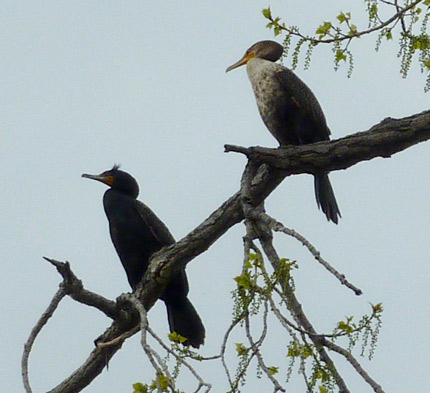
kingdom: Animalia
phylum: Chordata
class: Aves
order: Suliformes
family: Phalacrocoracidae
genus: Phalacrocorax
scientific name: Phalacrocorax auritus
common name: Double-crested cormorant
